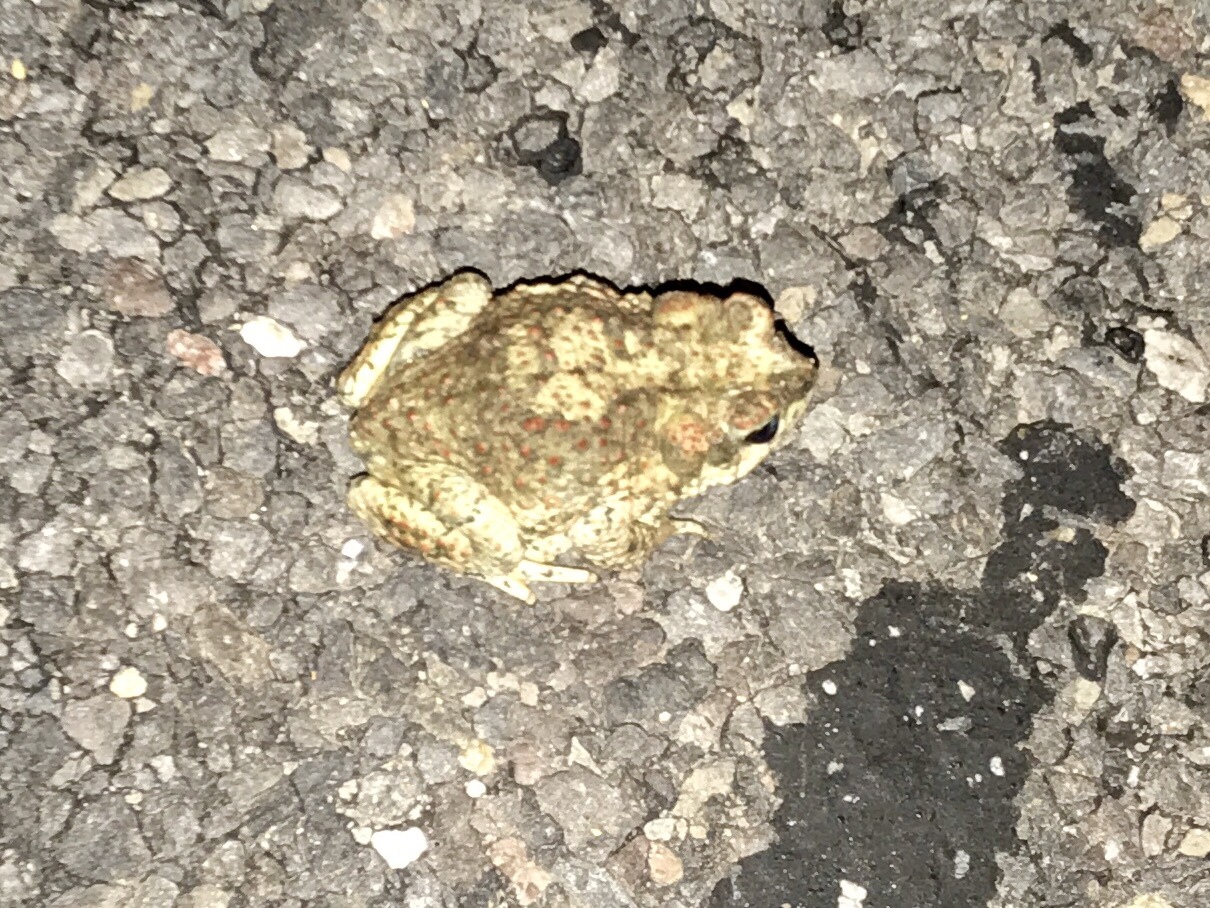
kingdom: Animalia
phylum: Chordata
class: Amphibia
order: Anura
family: Bufonidae
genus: Anaxyrus
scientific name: Anaxyrus punctatus
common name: Red-spotted toad
